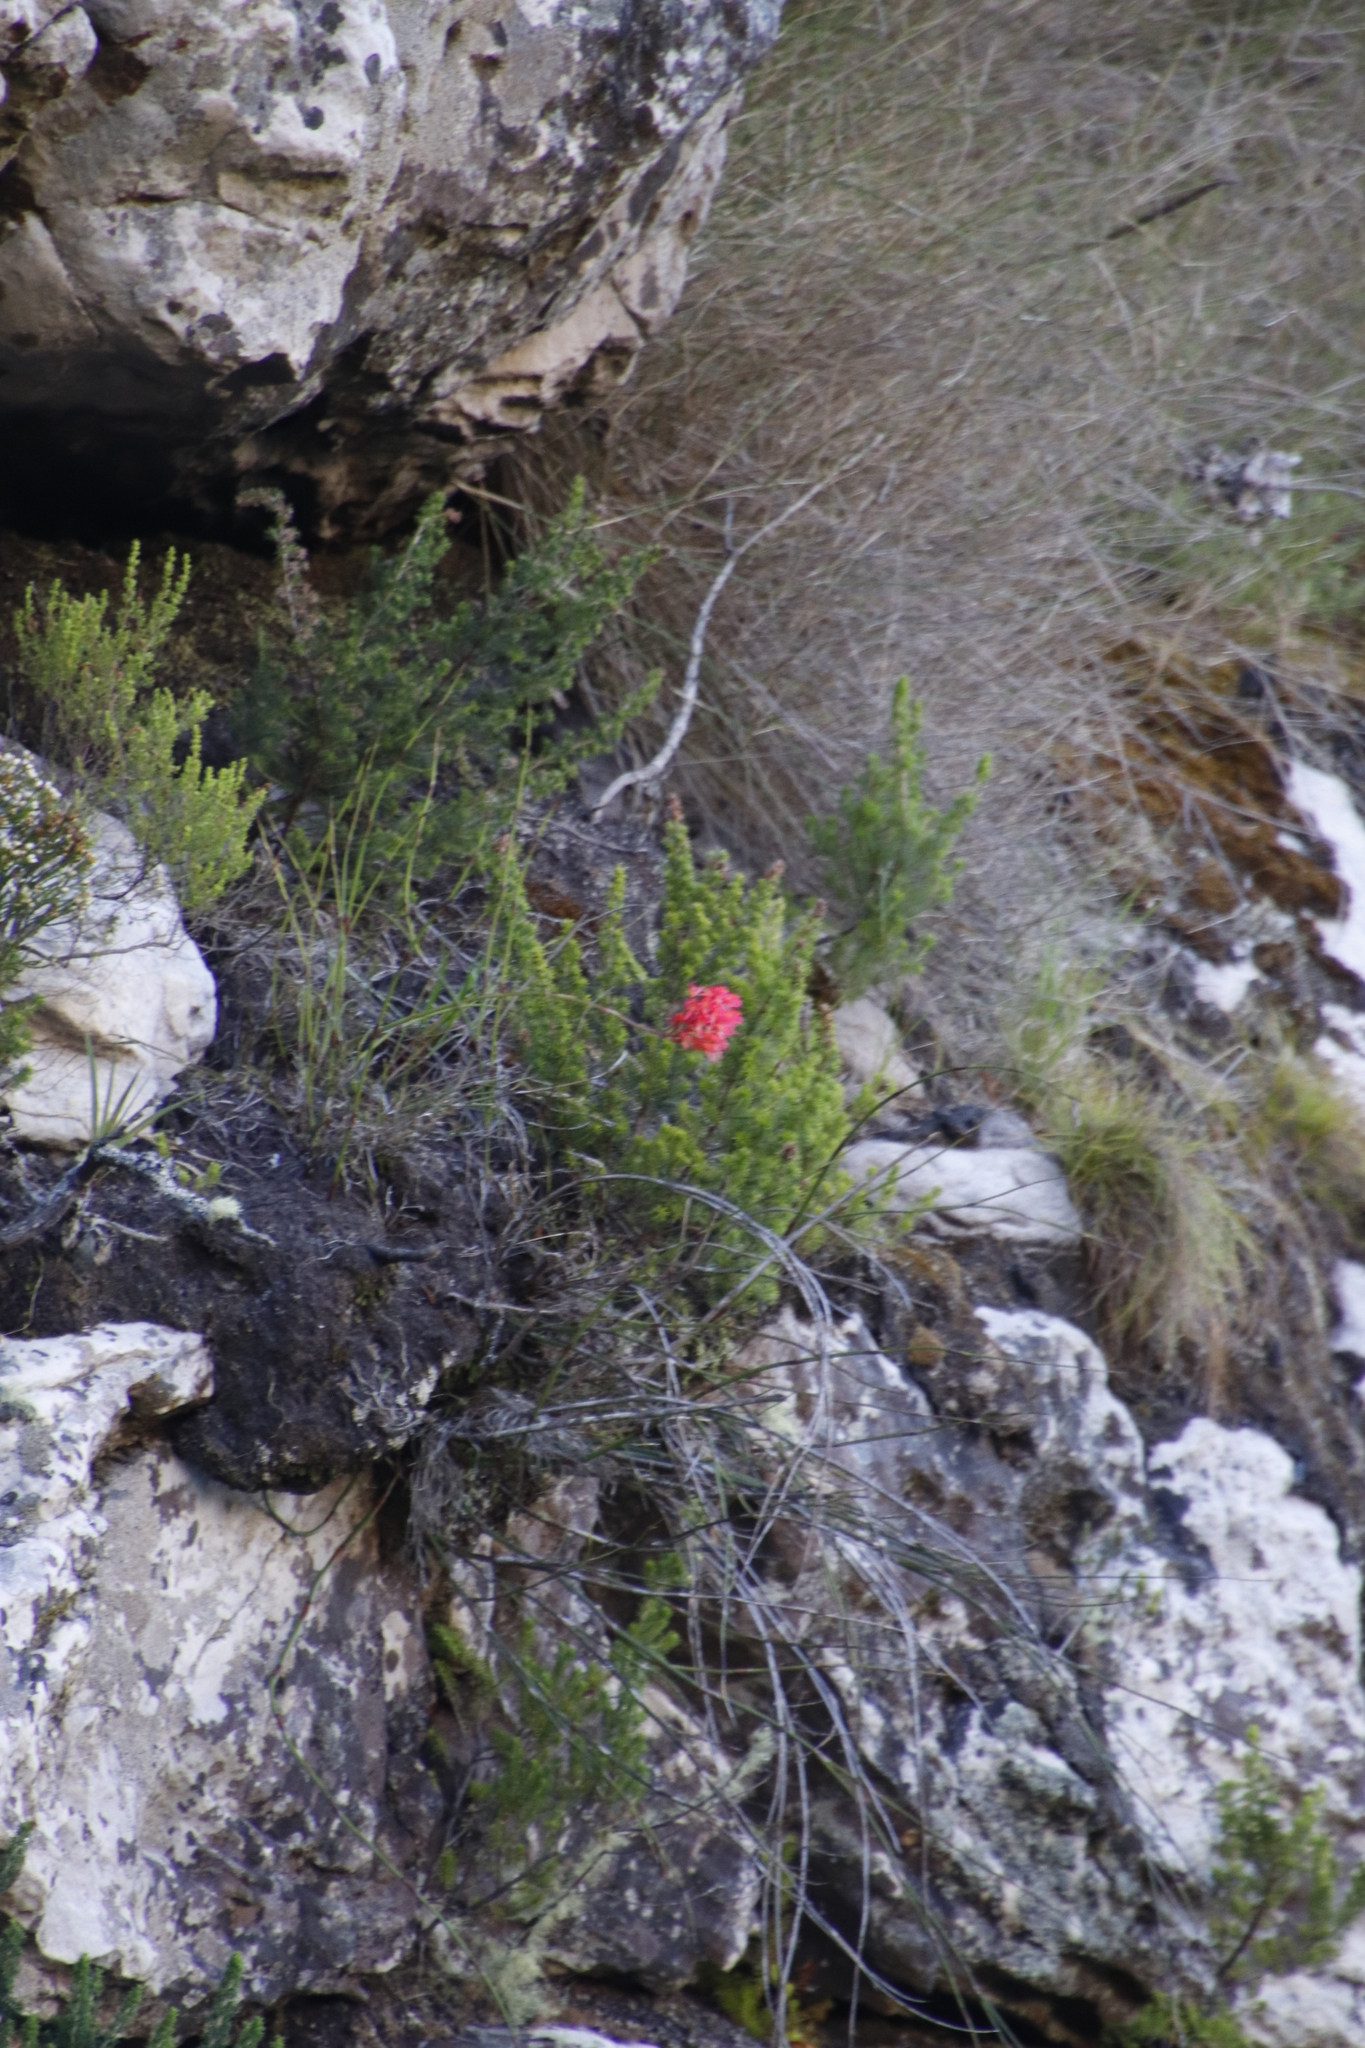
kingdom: Plantae
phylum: Tracheophyta
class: Liliopsida
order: Asparagales
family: Orchidaceae
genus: Disa
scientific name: Disa ferruginea
